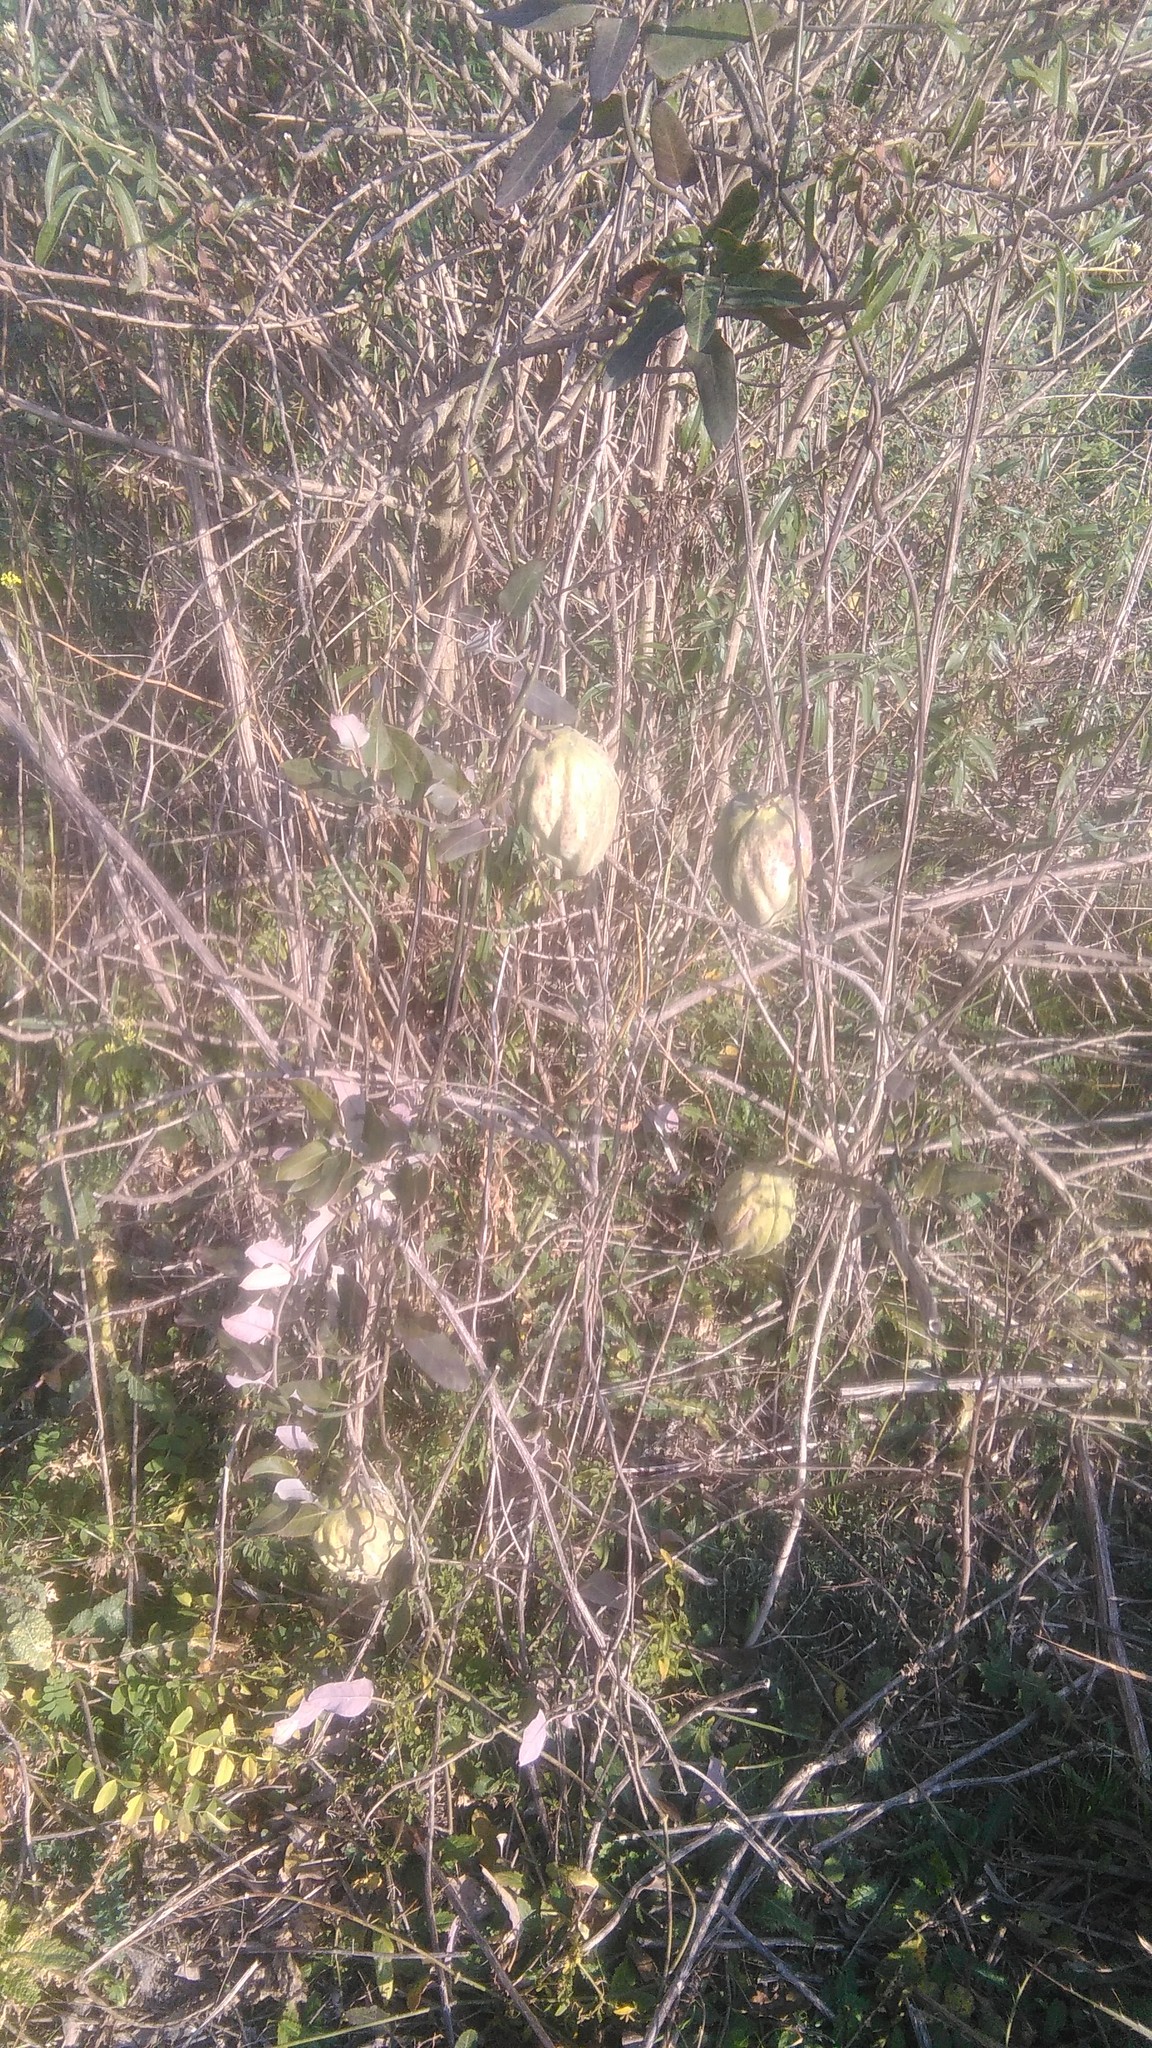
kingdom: Plantae
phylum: Tracheophyta
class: Magnoliopsida
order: Gentianales
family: Apocynaceae
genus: Araujia
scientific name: Araujia sericifera
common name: White bladderflower
